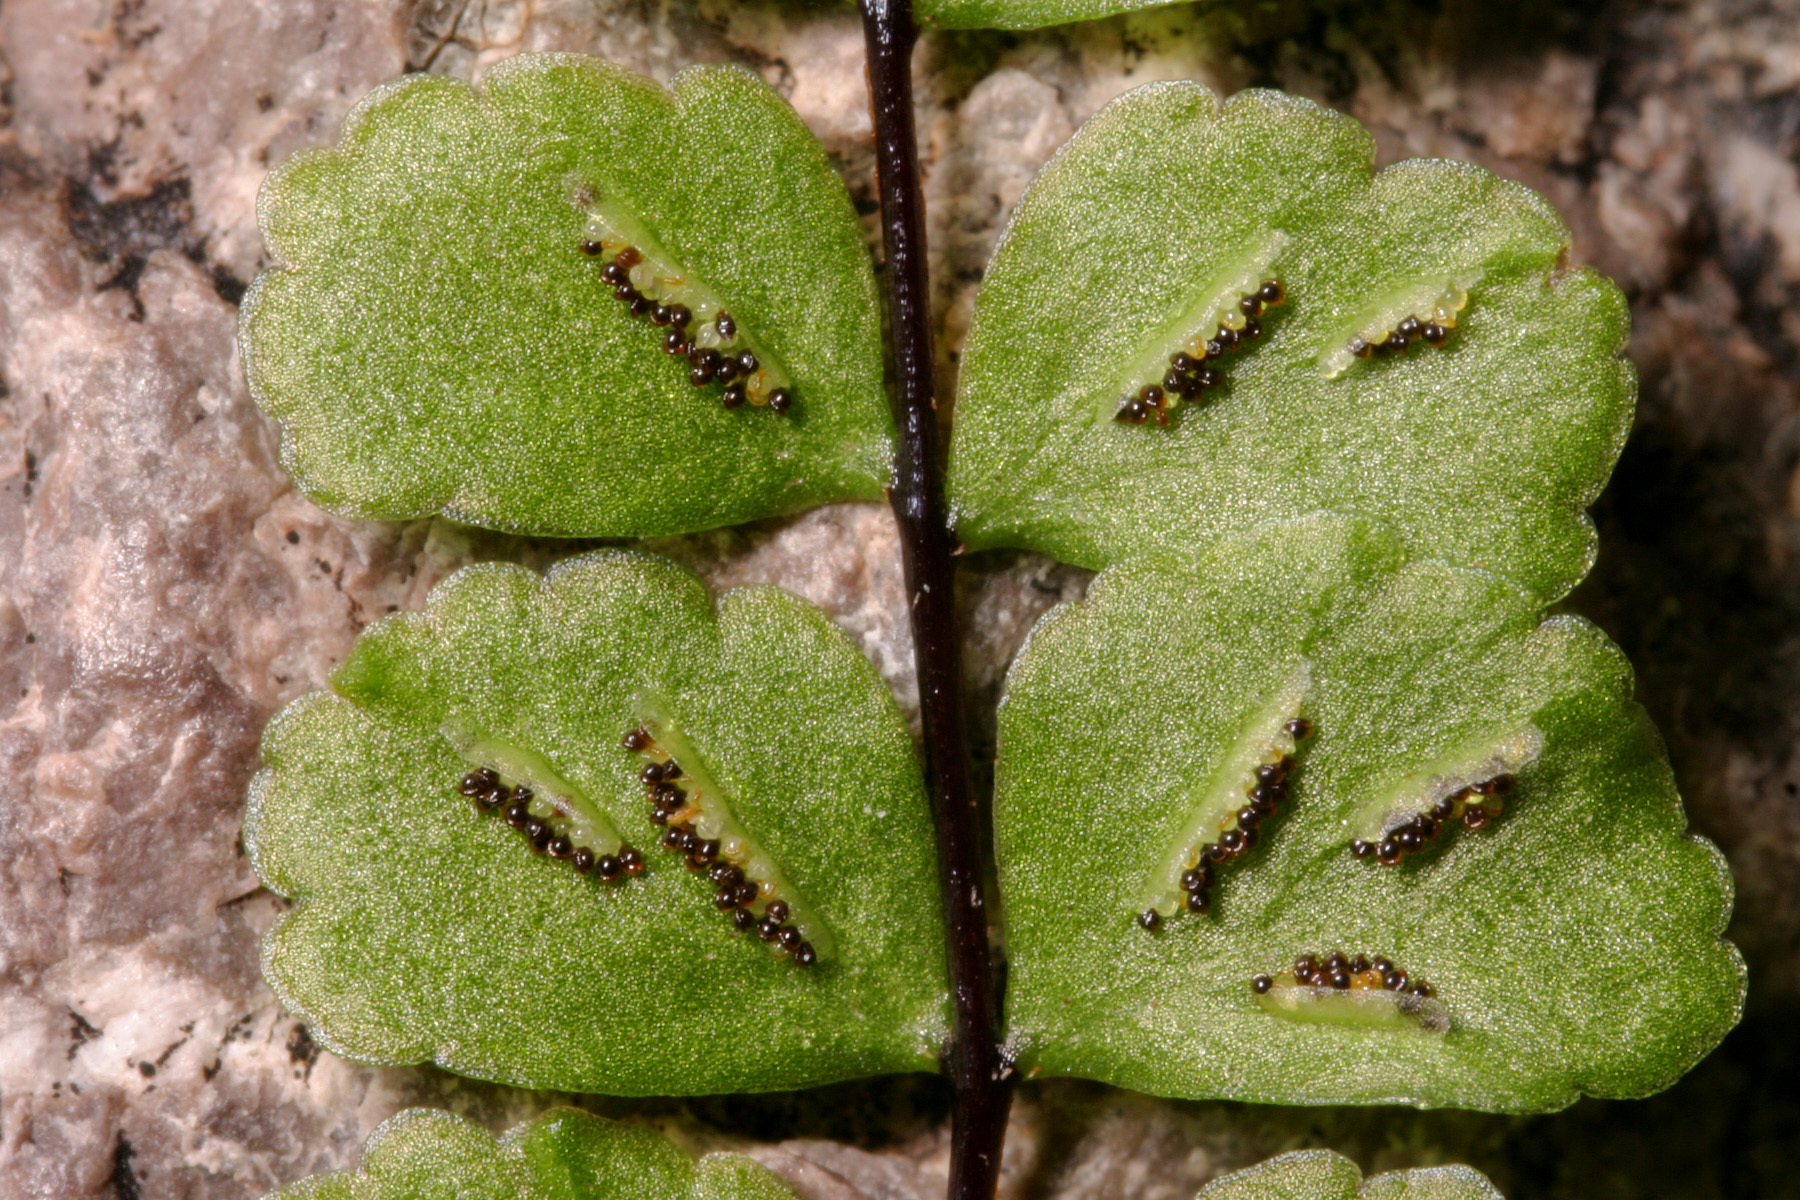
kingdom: Plantae
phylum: Tracheophyta
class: Polypodiopsida
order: Polypodiales
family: Aspleniaceae
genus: Asplenium
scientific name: Asplenium trichomanes
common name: Maidenhair spleenwort
